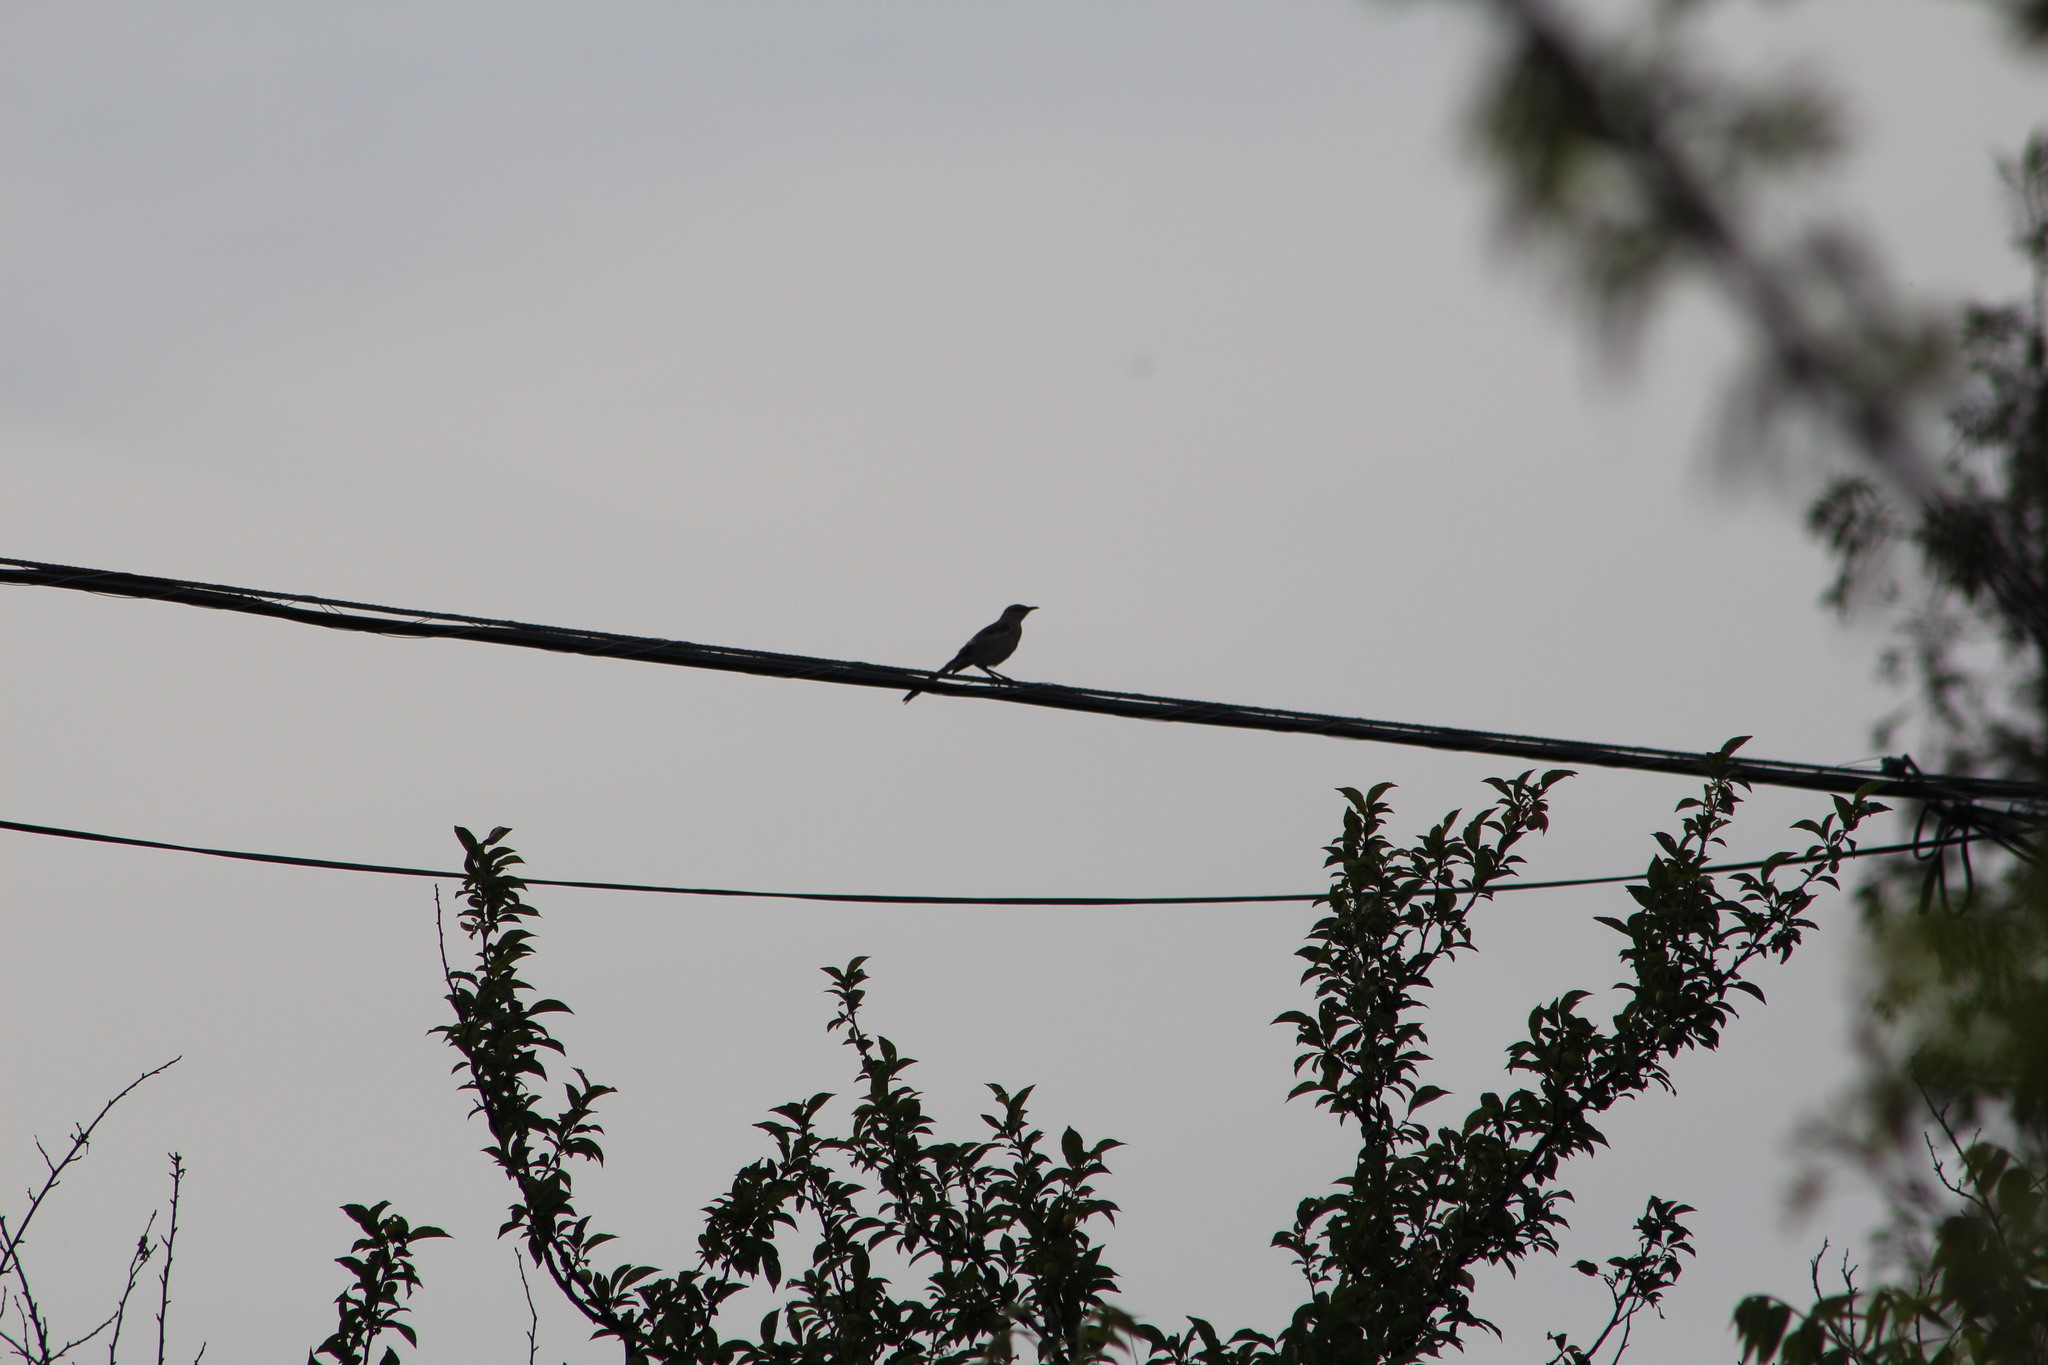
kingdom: Animalia
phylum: Chordata
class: Aves
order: Passeriformes
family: Mimidae
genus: Mimus
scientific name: Mimus polyglottos
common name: Northern mockingbird
